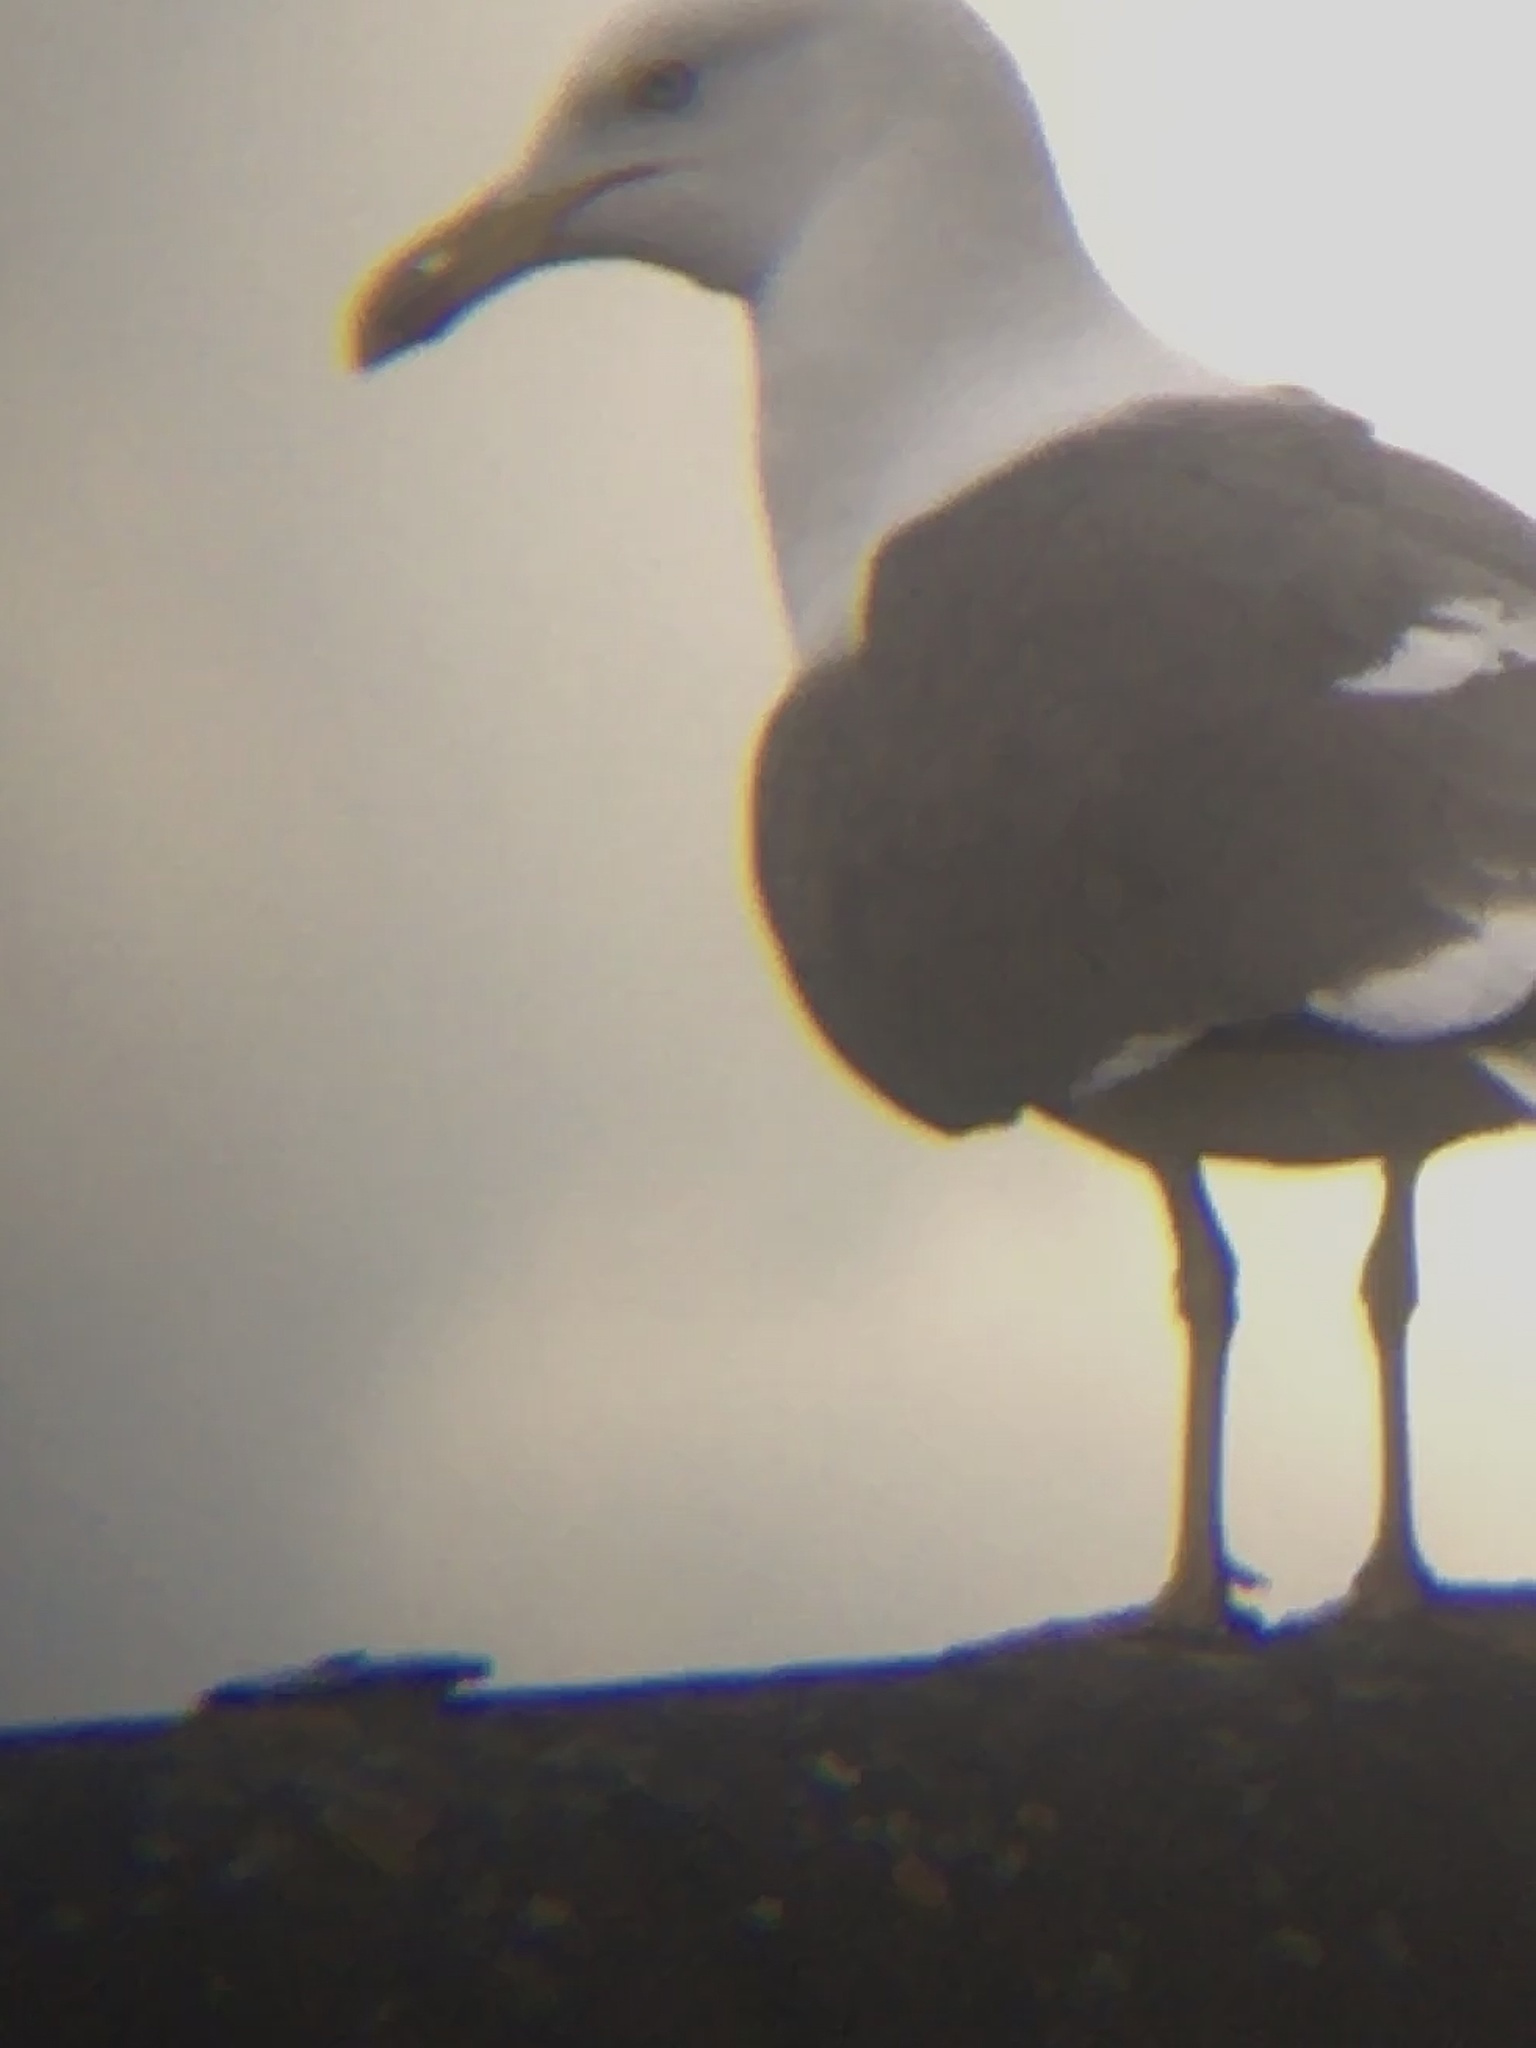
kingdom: Animalia
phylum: Chordata
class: Aves
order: Charadriiformes
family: Laridae
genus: Larus
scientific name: Larus fuscus
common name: Lesser black-backed gull
